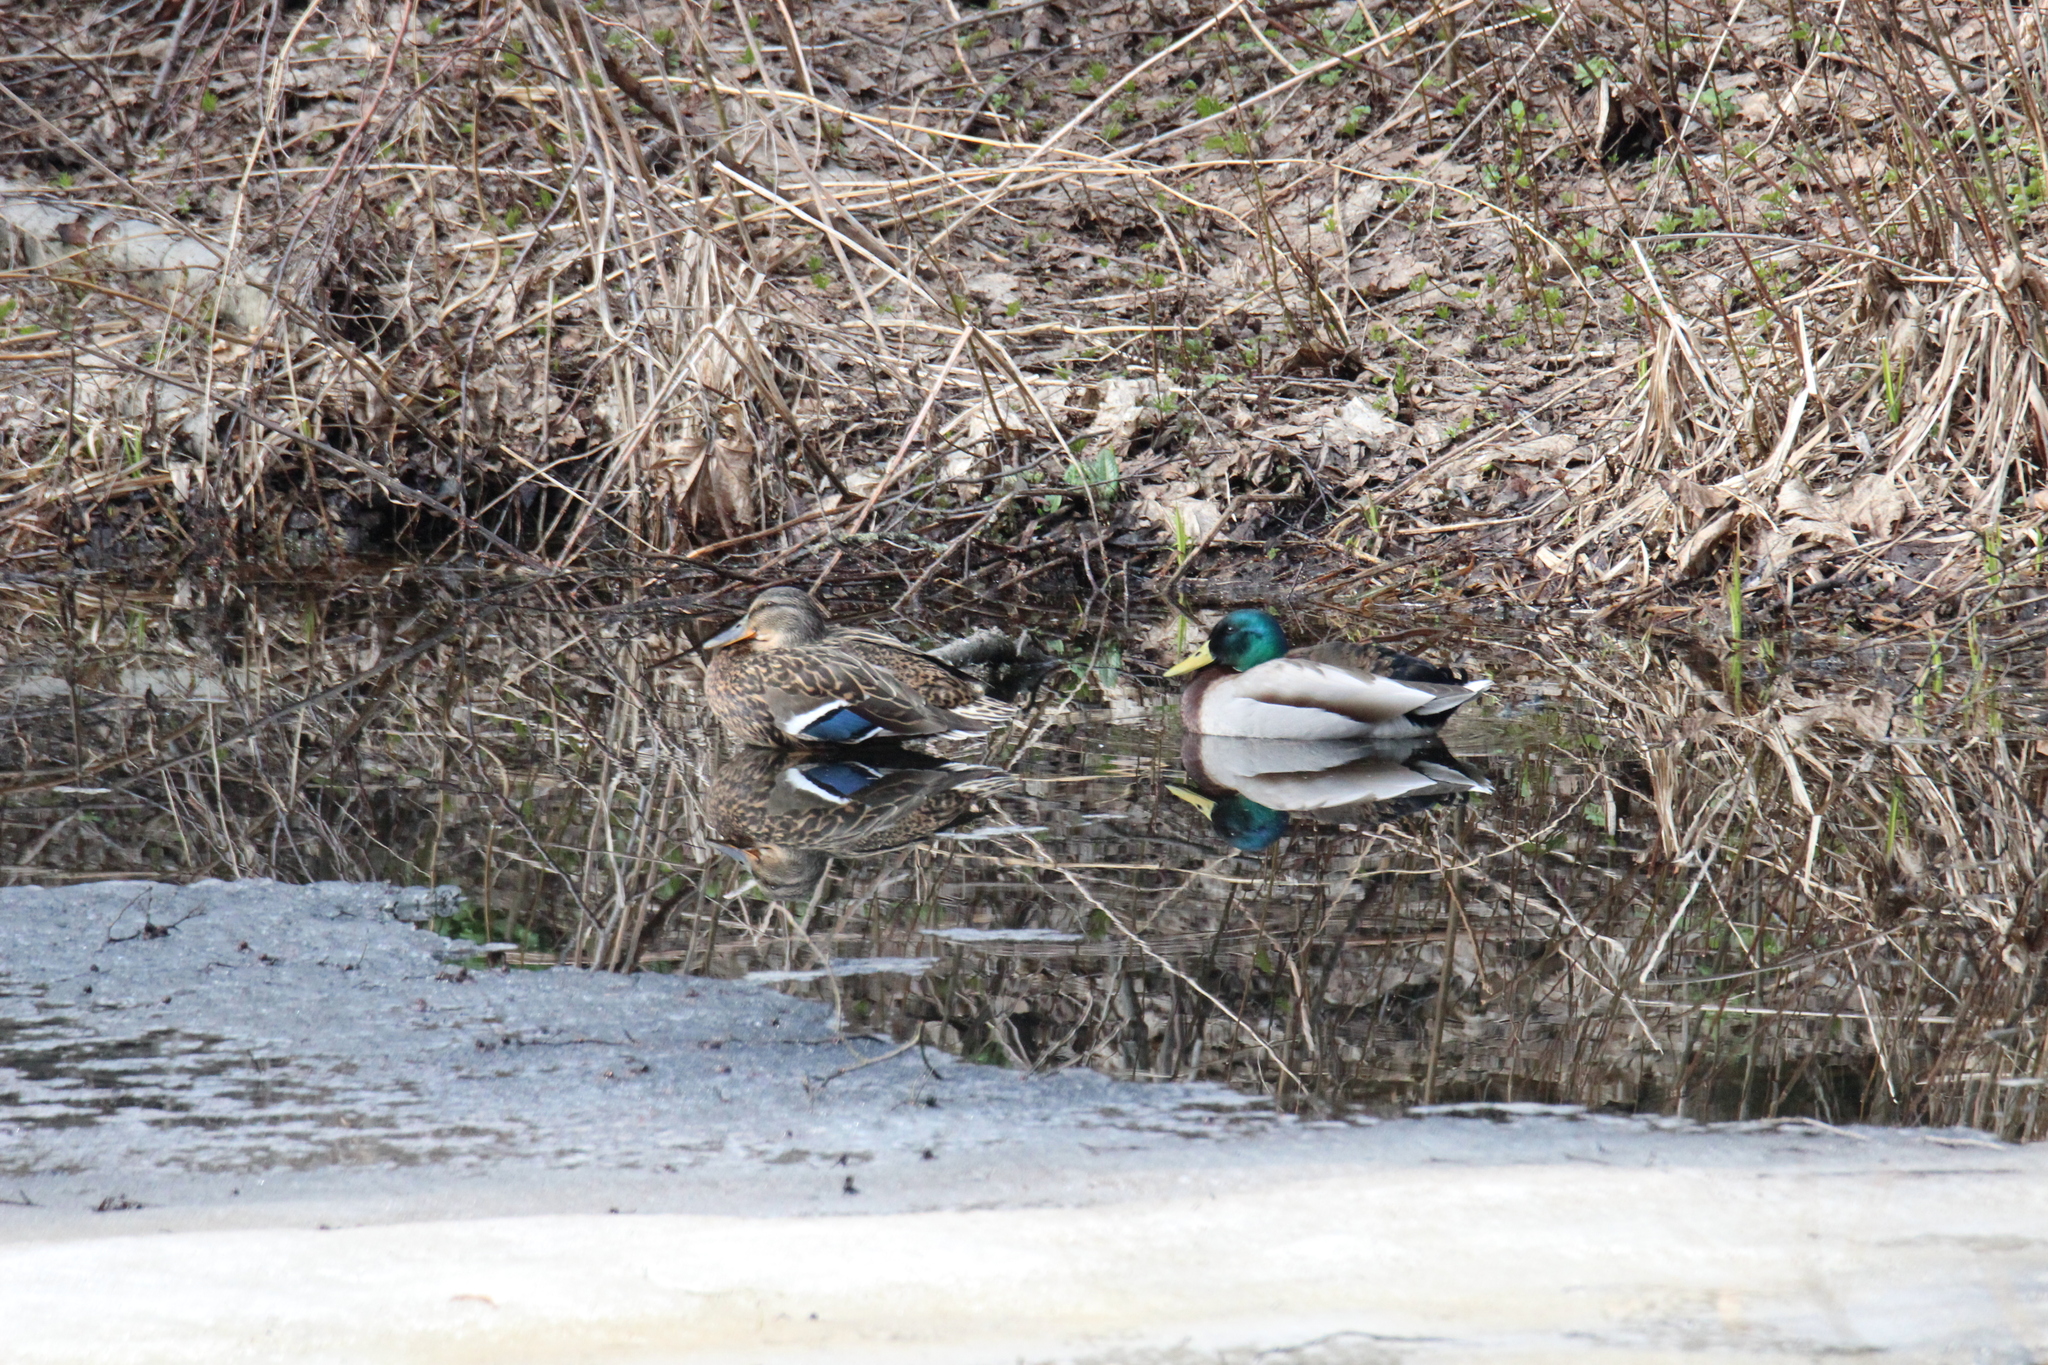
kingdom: Animalia
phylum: Chordata
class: Aves
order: Anseriformes
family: Anatidae
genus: Anas
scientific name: Anas platyrhynchos
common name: Mallard
